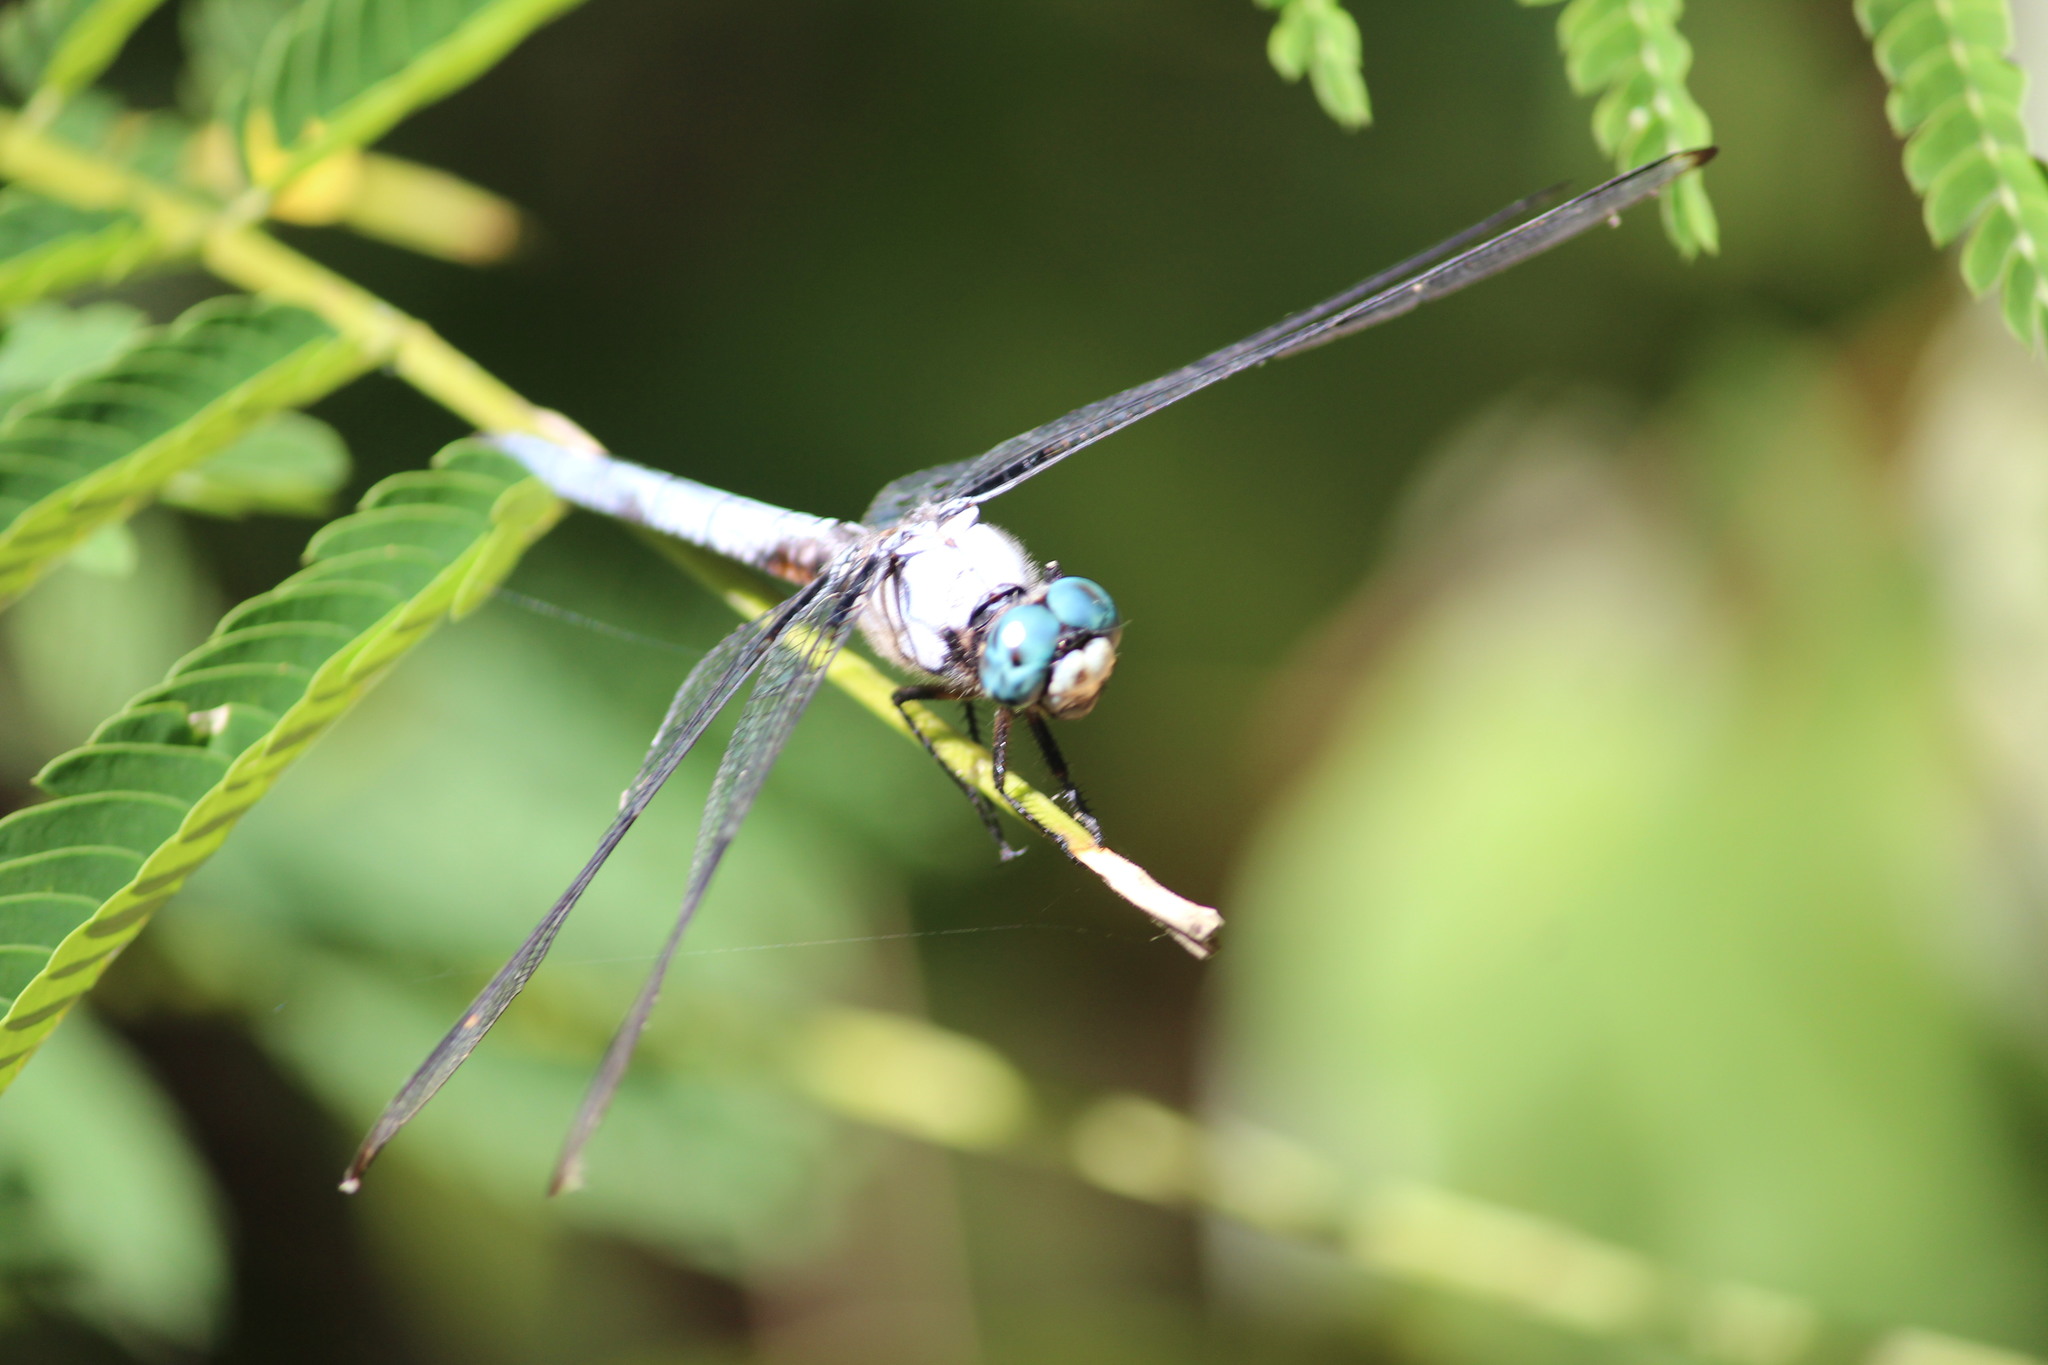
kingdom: Animalia
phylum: Arthropoda
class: Insecta
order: Odonata
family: Libellulidae
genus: Libellula
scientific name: Libellula vibrans
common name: Great blue skimmer
